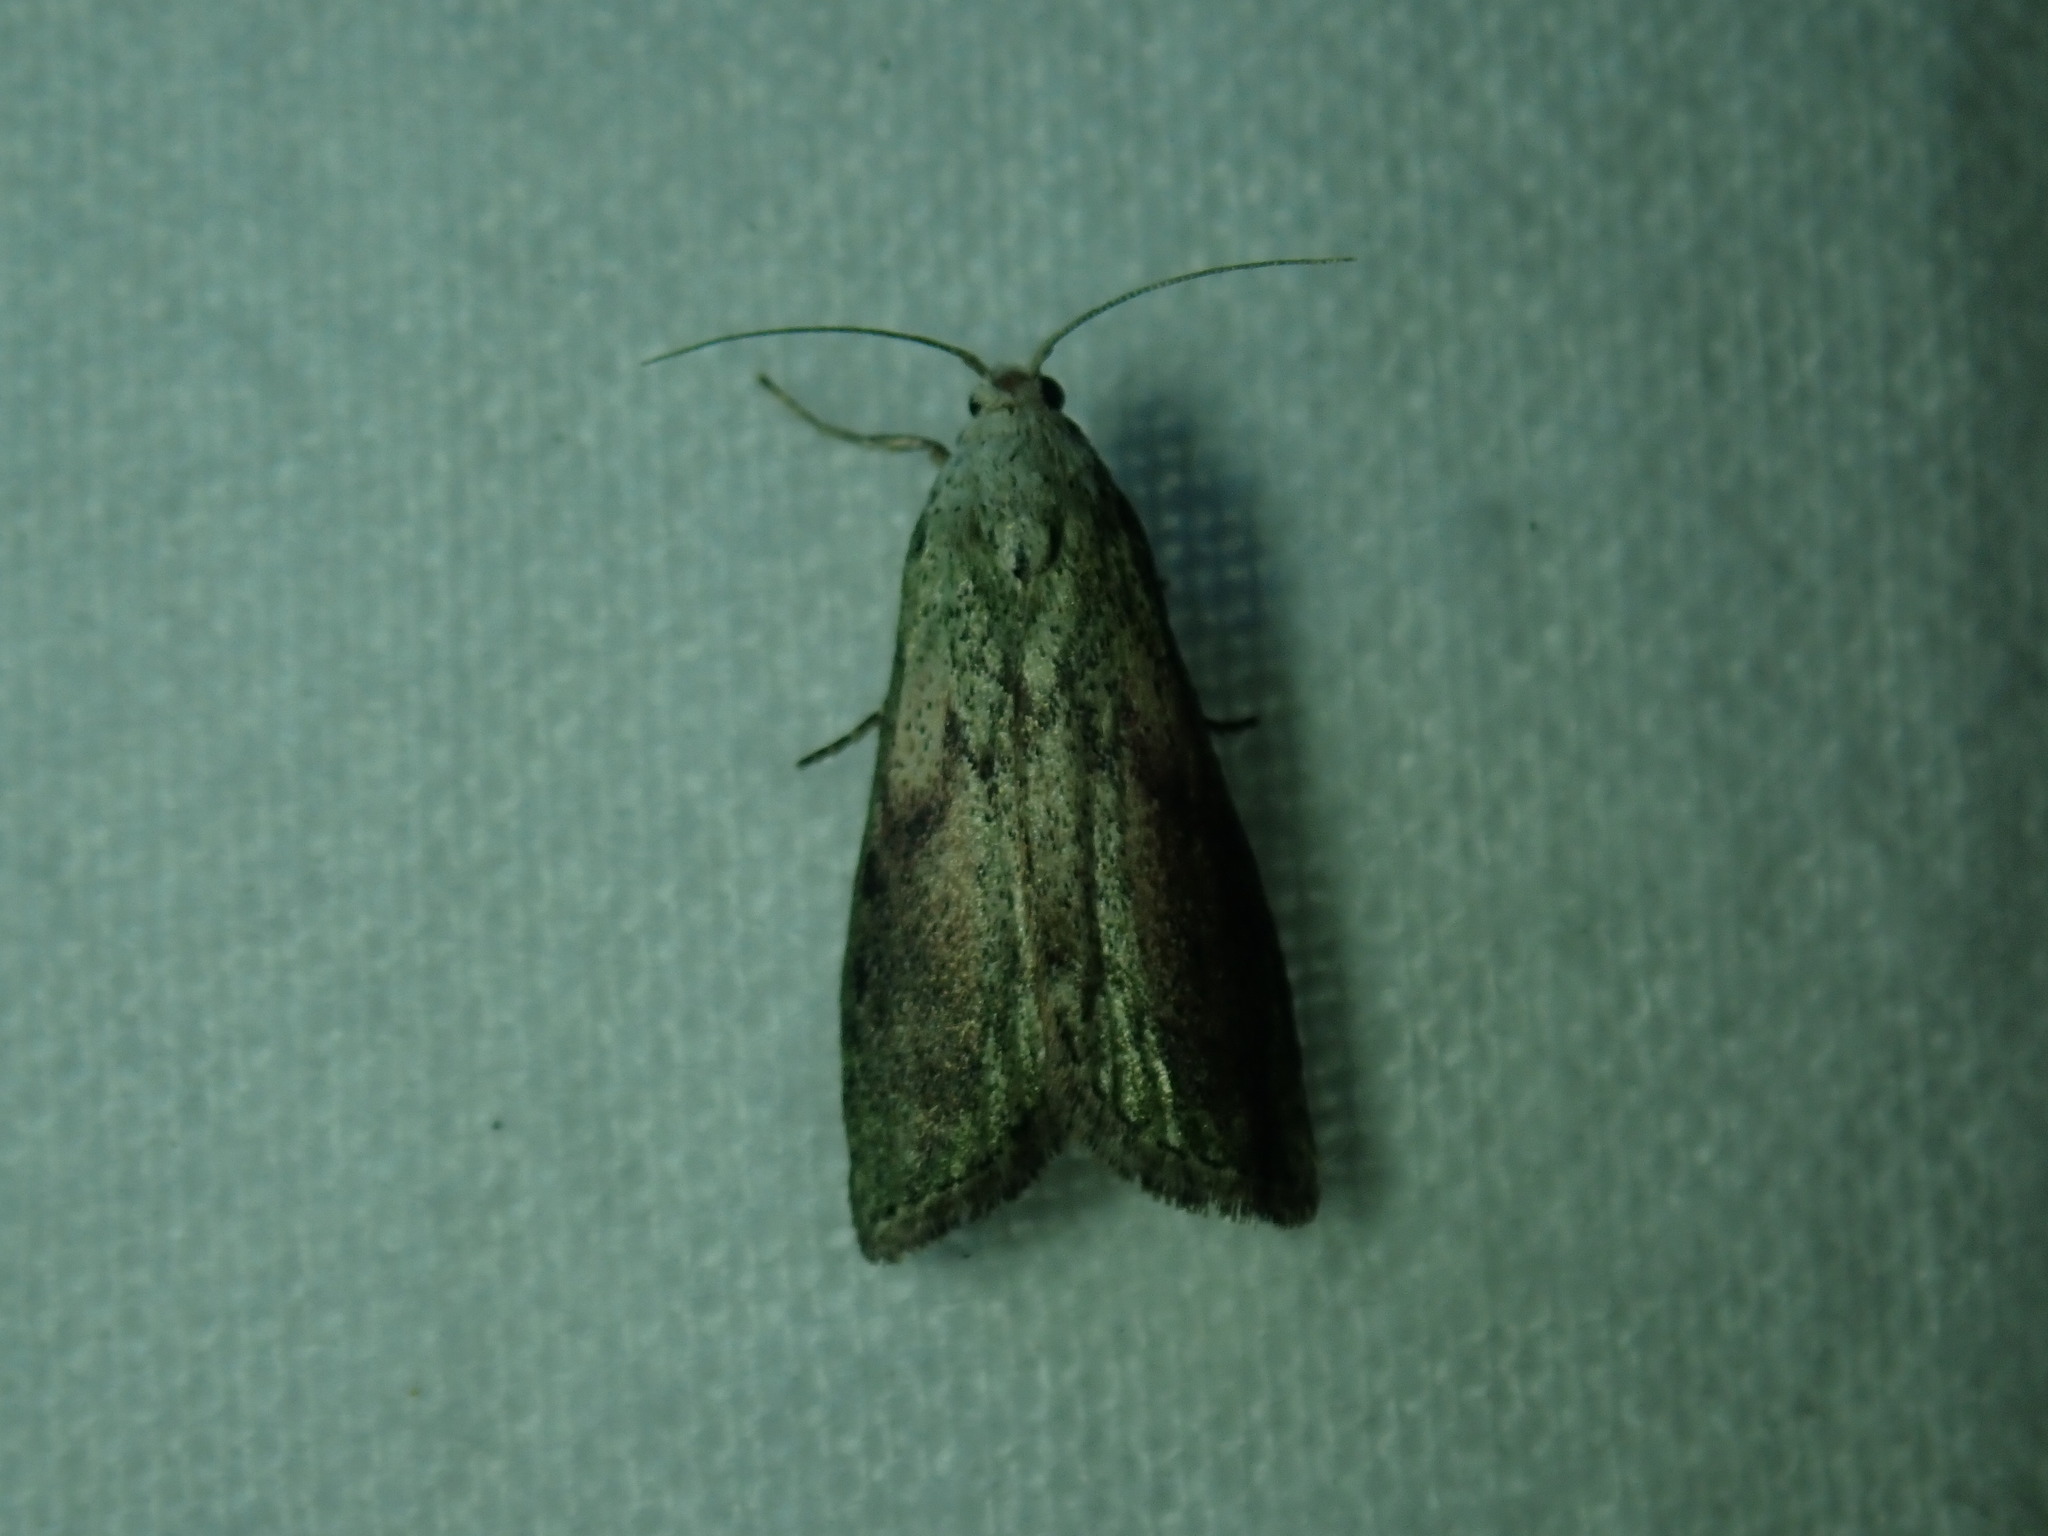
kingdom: Animalia
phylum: Arthropoda
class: Insecta
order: Lepidoptera
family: Pyralidae
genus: Aphomia
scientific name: Aphomia sociella
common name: Bee moth
